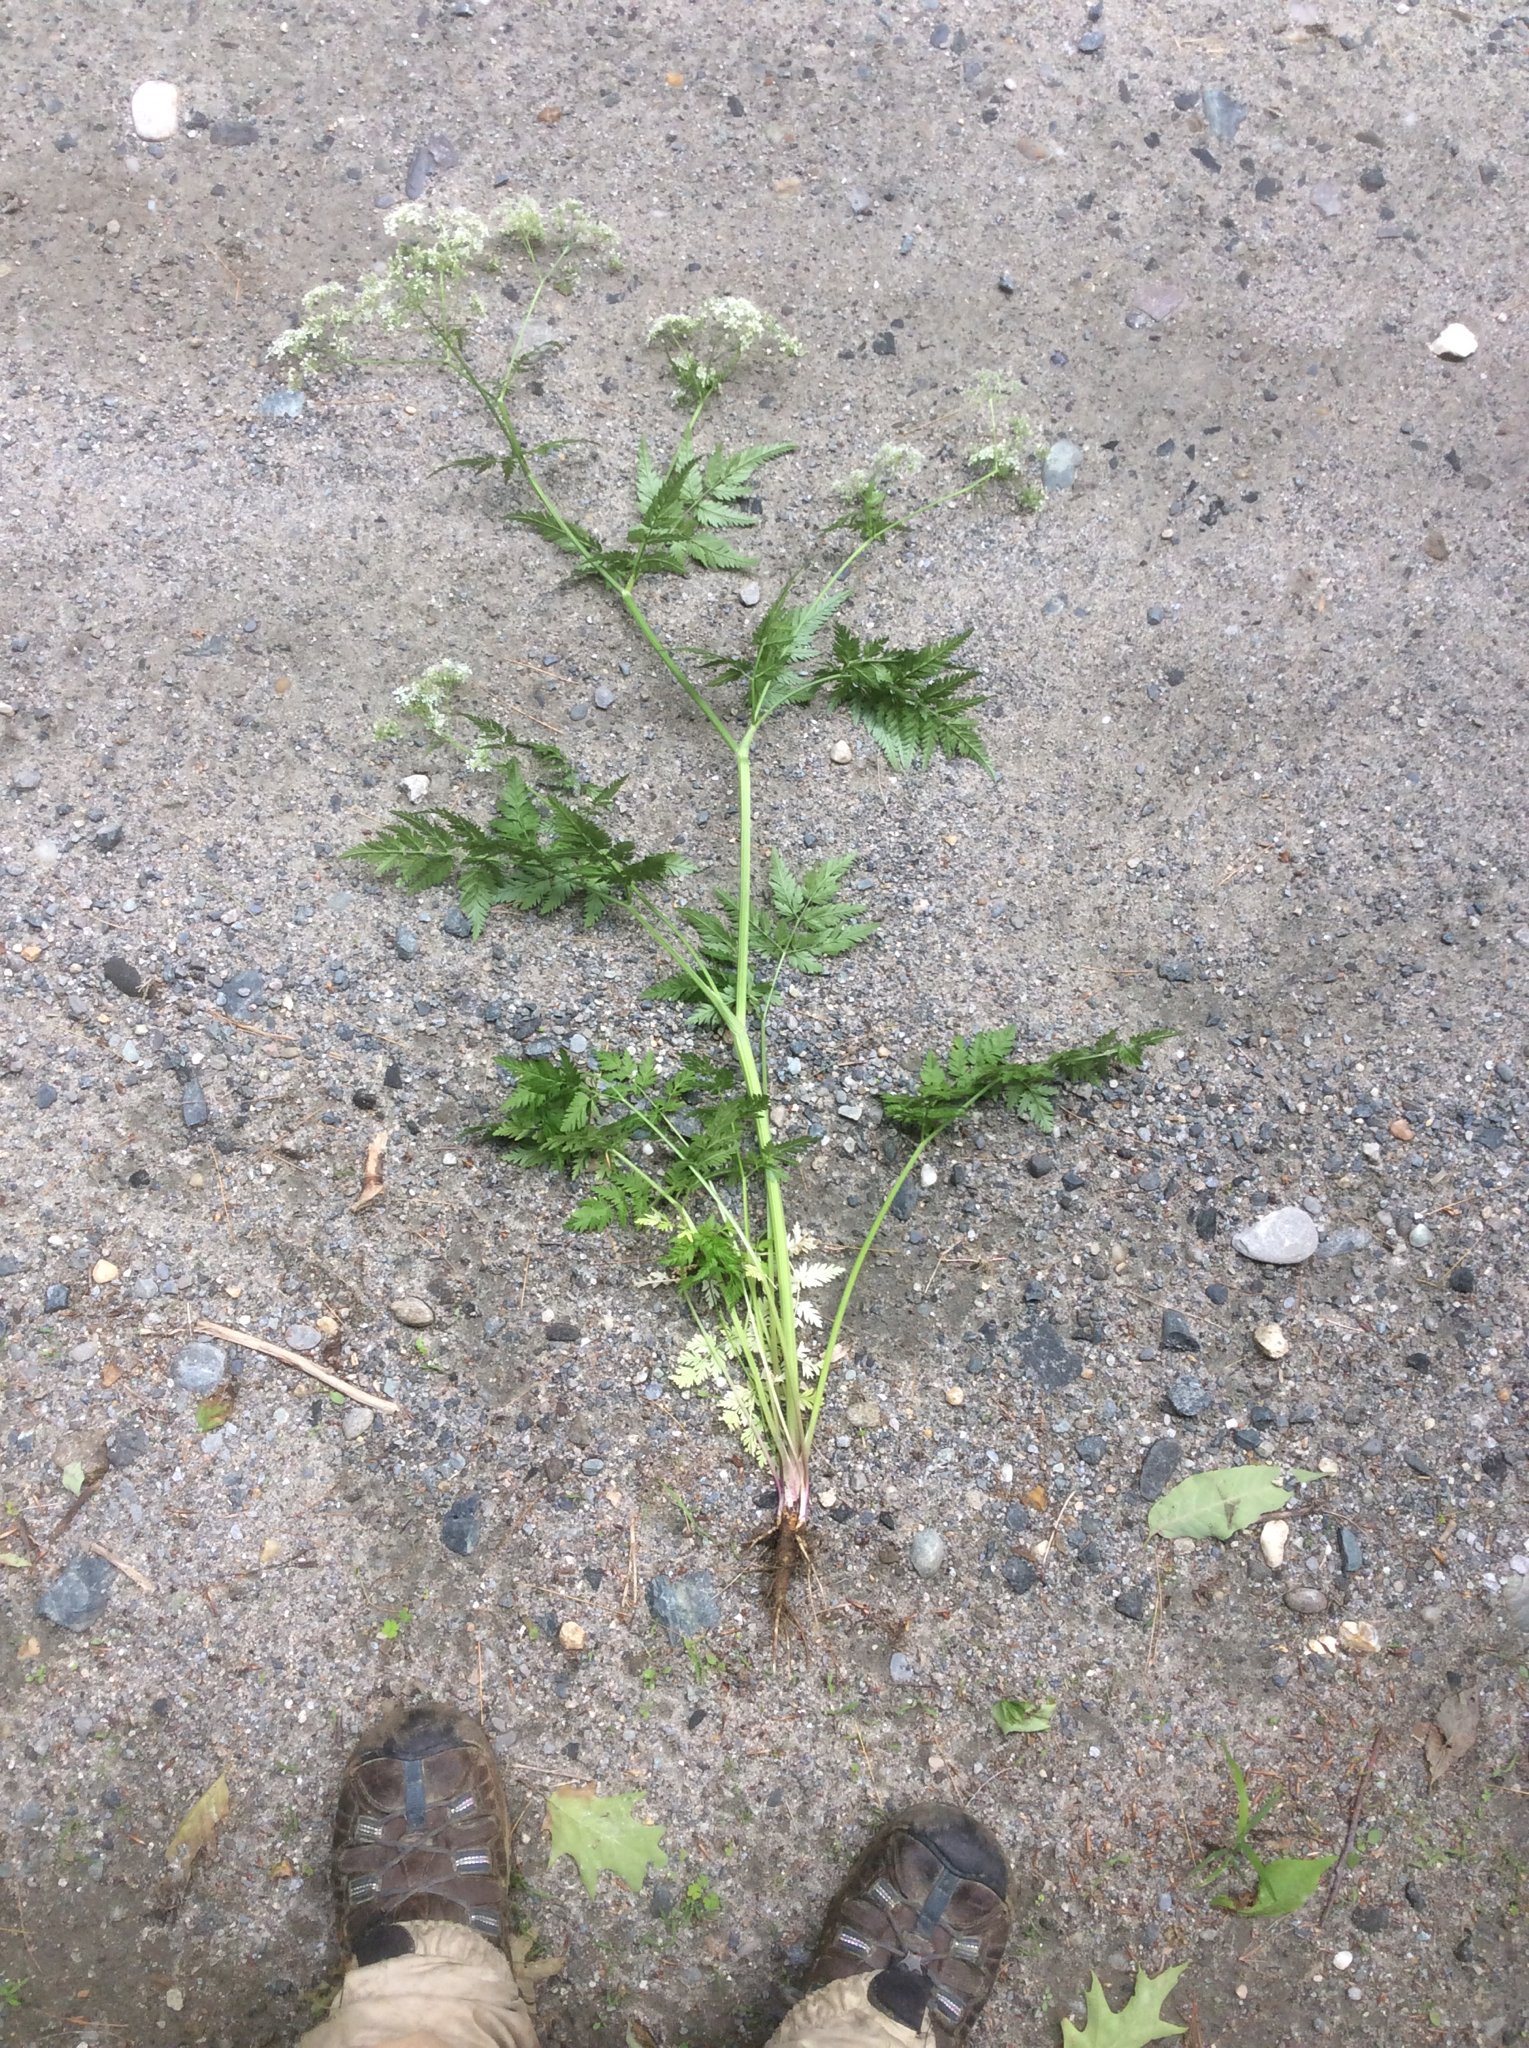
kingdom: Plantae
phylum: Tracheophyta
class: Magnoliopsida
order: Apiales
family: Apiaceae
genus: Anthriscus
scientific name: Anthriscus sylvestris
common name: Cow parsley
